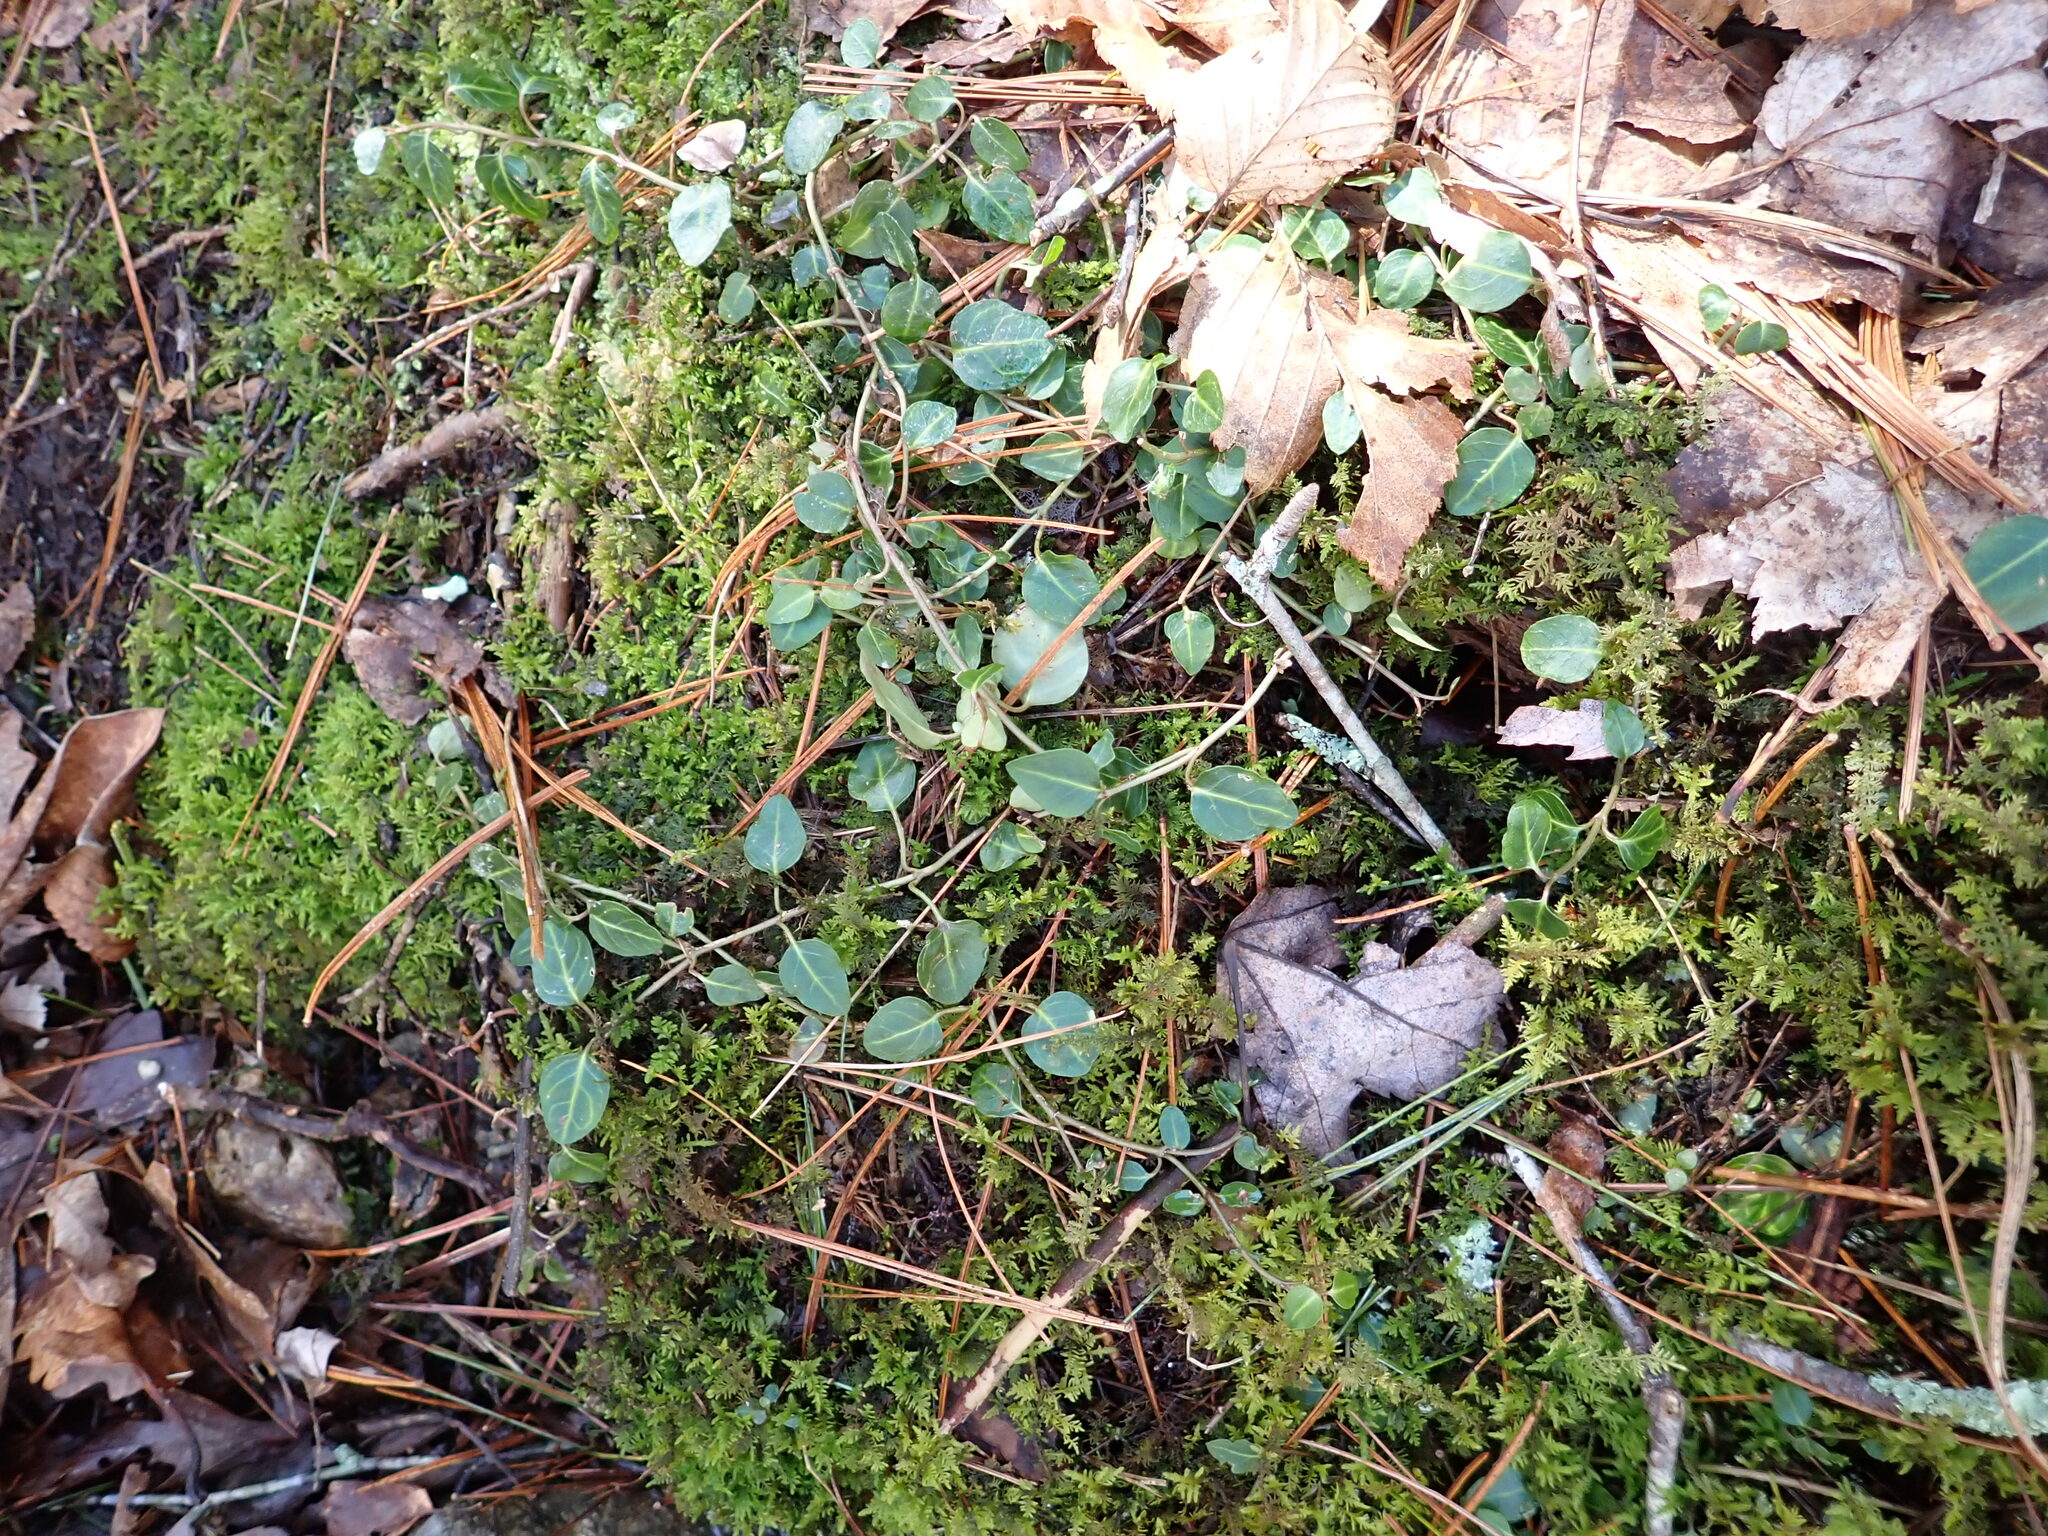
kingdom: Plantae
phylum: Tracheophyta
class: Magnoliopsida
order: Gentianales
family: Rubiaceae
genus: Mitchella
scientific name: Mitchella repens
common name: Partridge-berry
